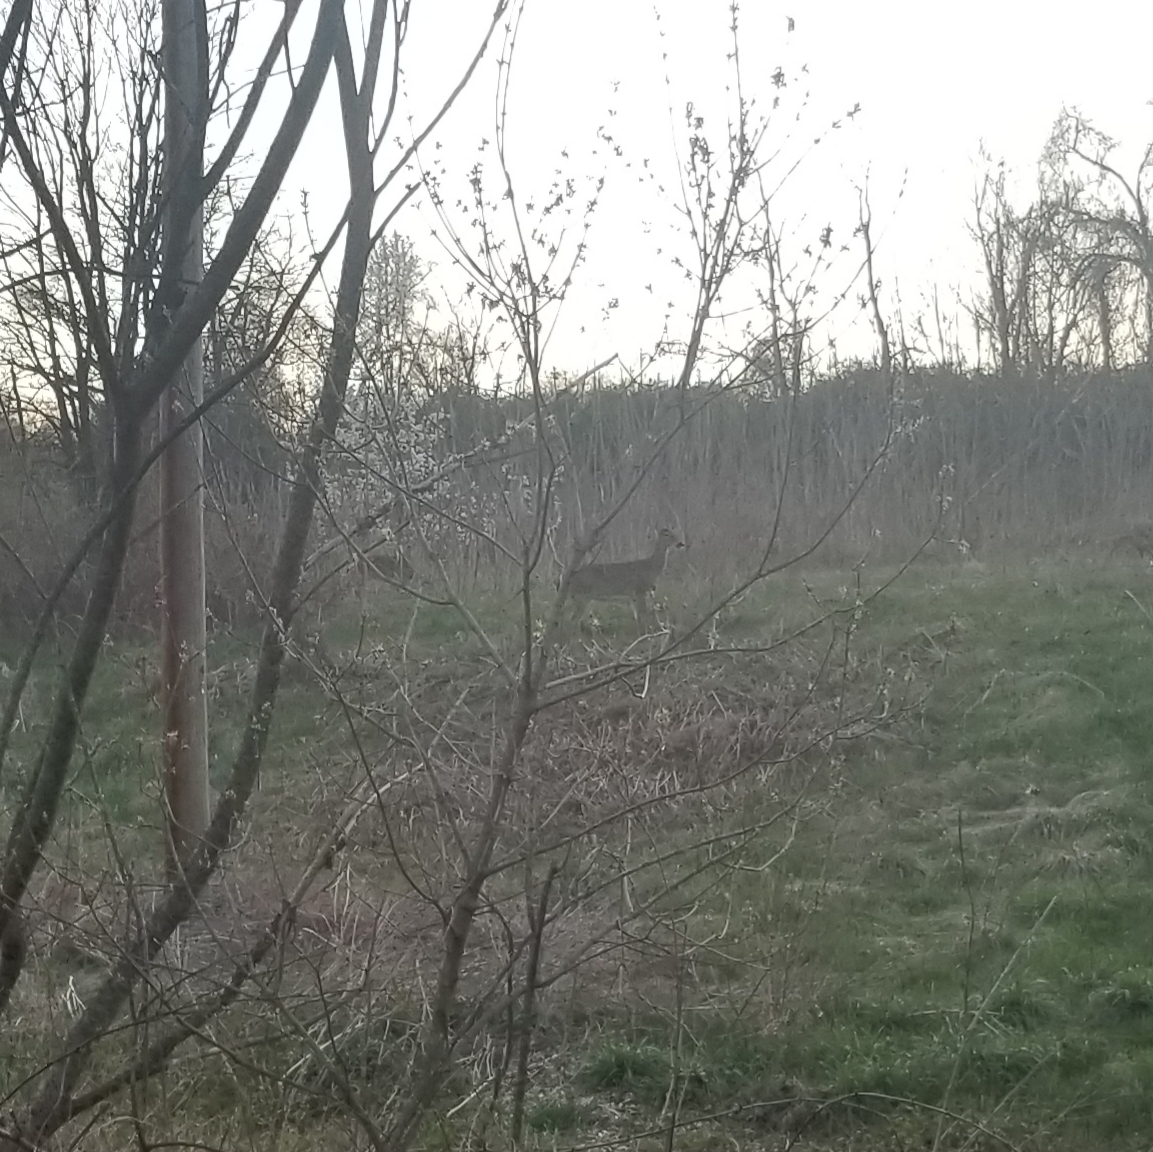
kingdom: Animalia
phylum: Chordata
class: Mammalia
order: Artiodactyla
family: Cervidae
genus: Odocoileus
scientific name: Odocoileus virginianus
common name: White-tailed deer
